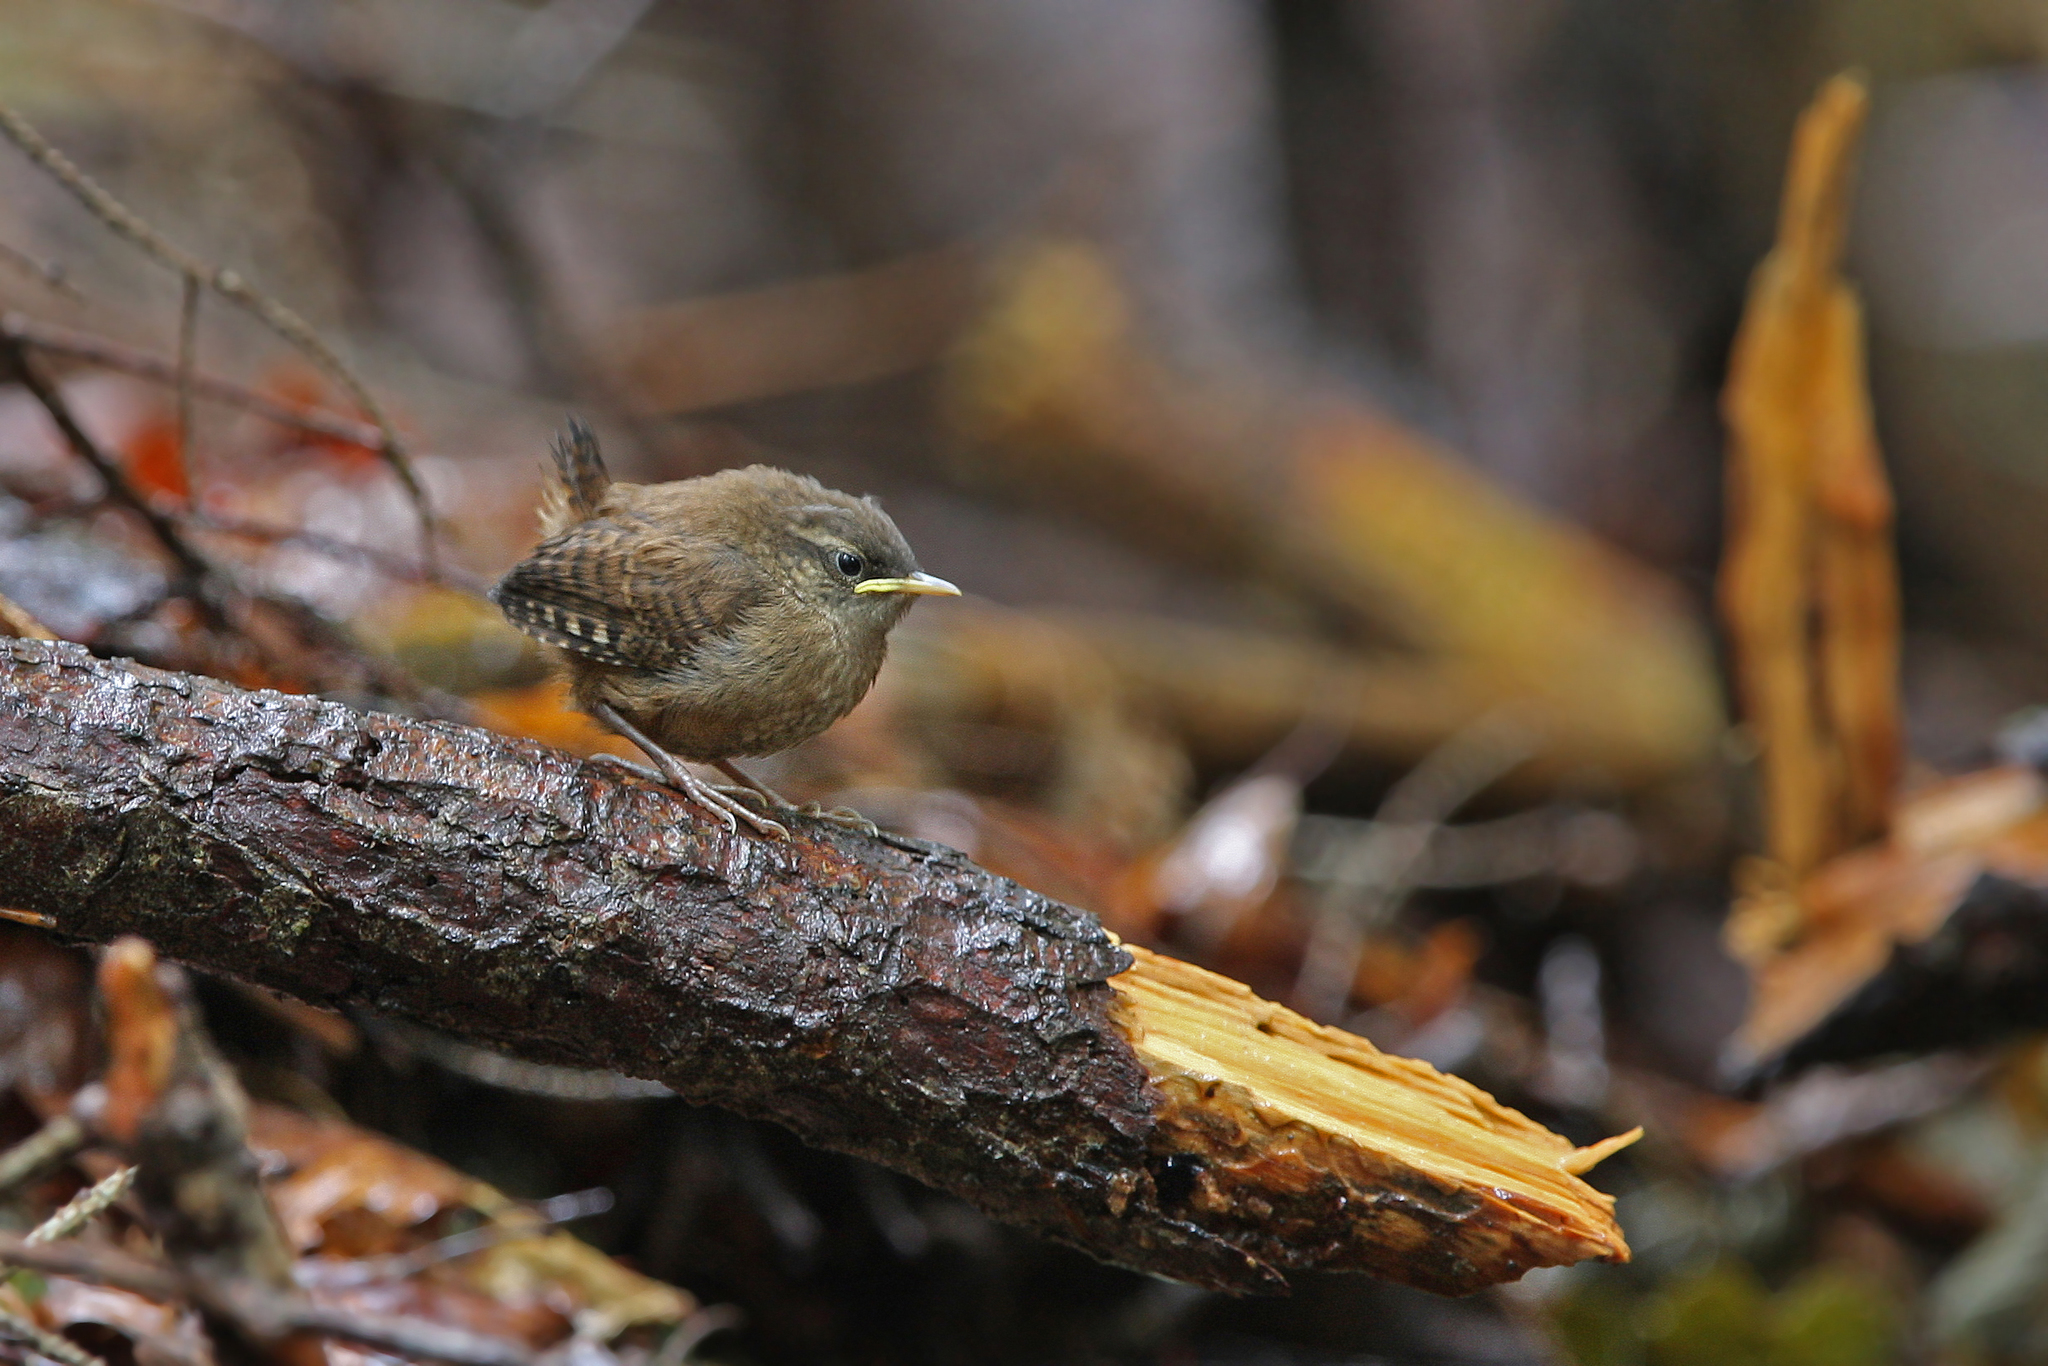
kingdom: Animalia
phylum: Chordata
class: Aves
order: Passeriformes
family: Troglodytidae
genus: Troglodytes
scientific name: Troglodytes troglodytes
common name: Eurasian wren
